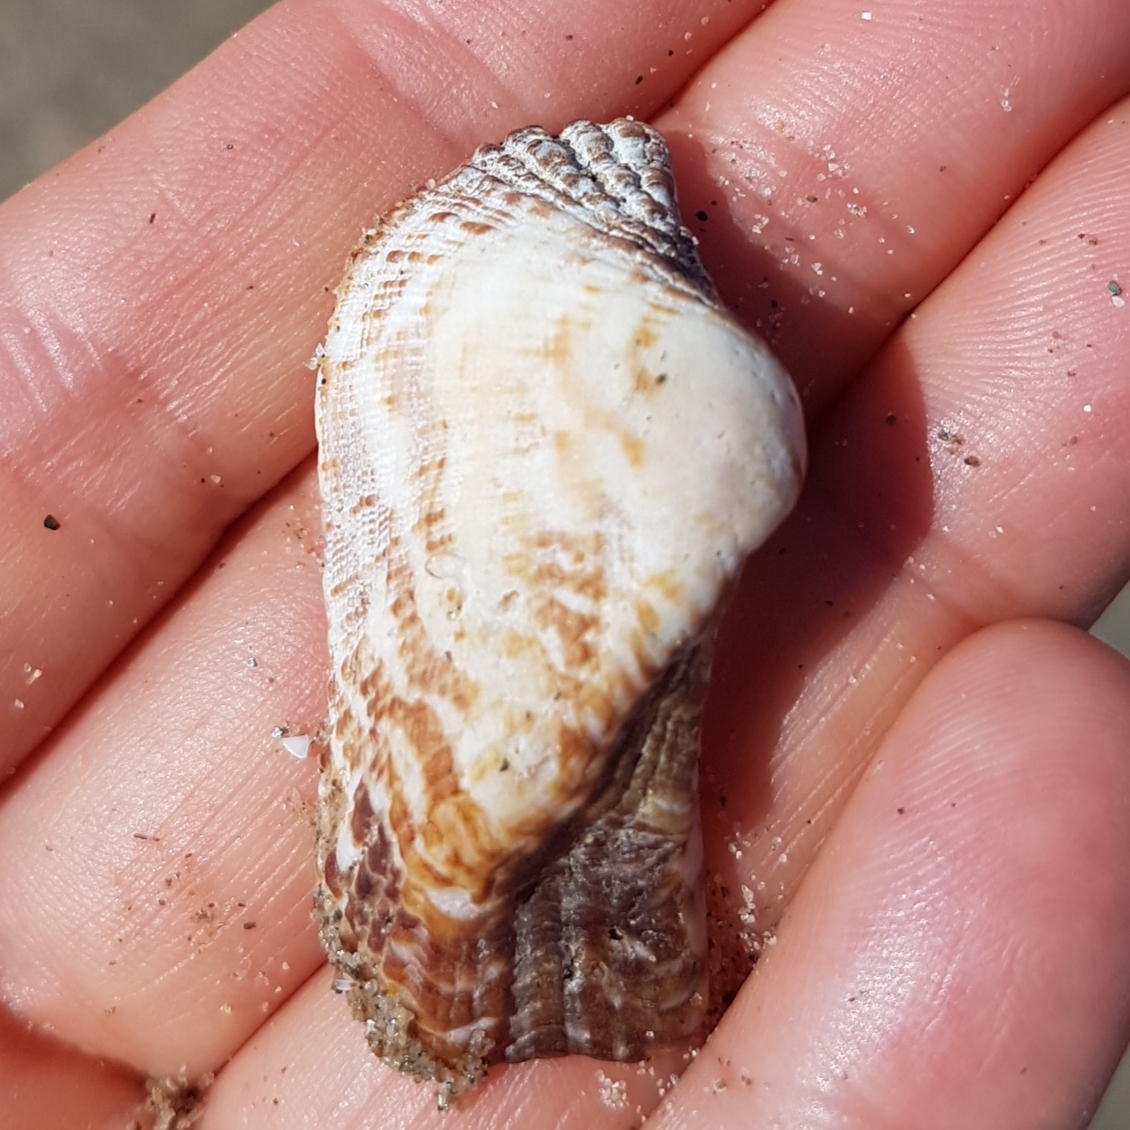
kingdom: Animalia
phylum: Mollusca
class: Bivalvia
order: Arcida
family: Arcidae
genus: Arca
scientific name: Arca noae
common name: Noah's arch
